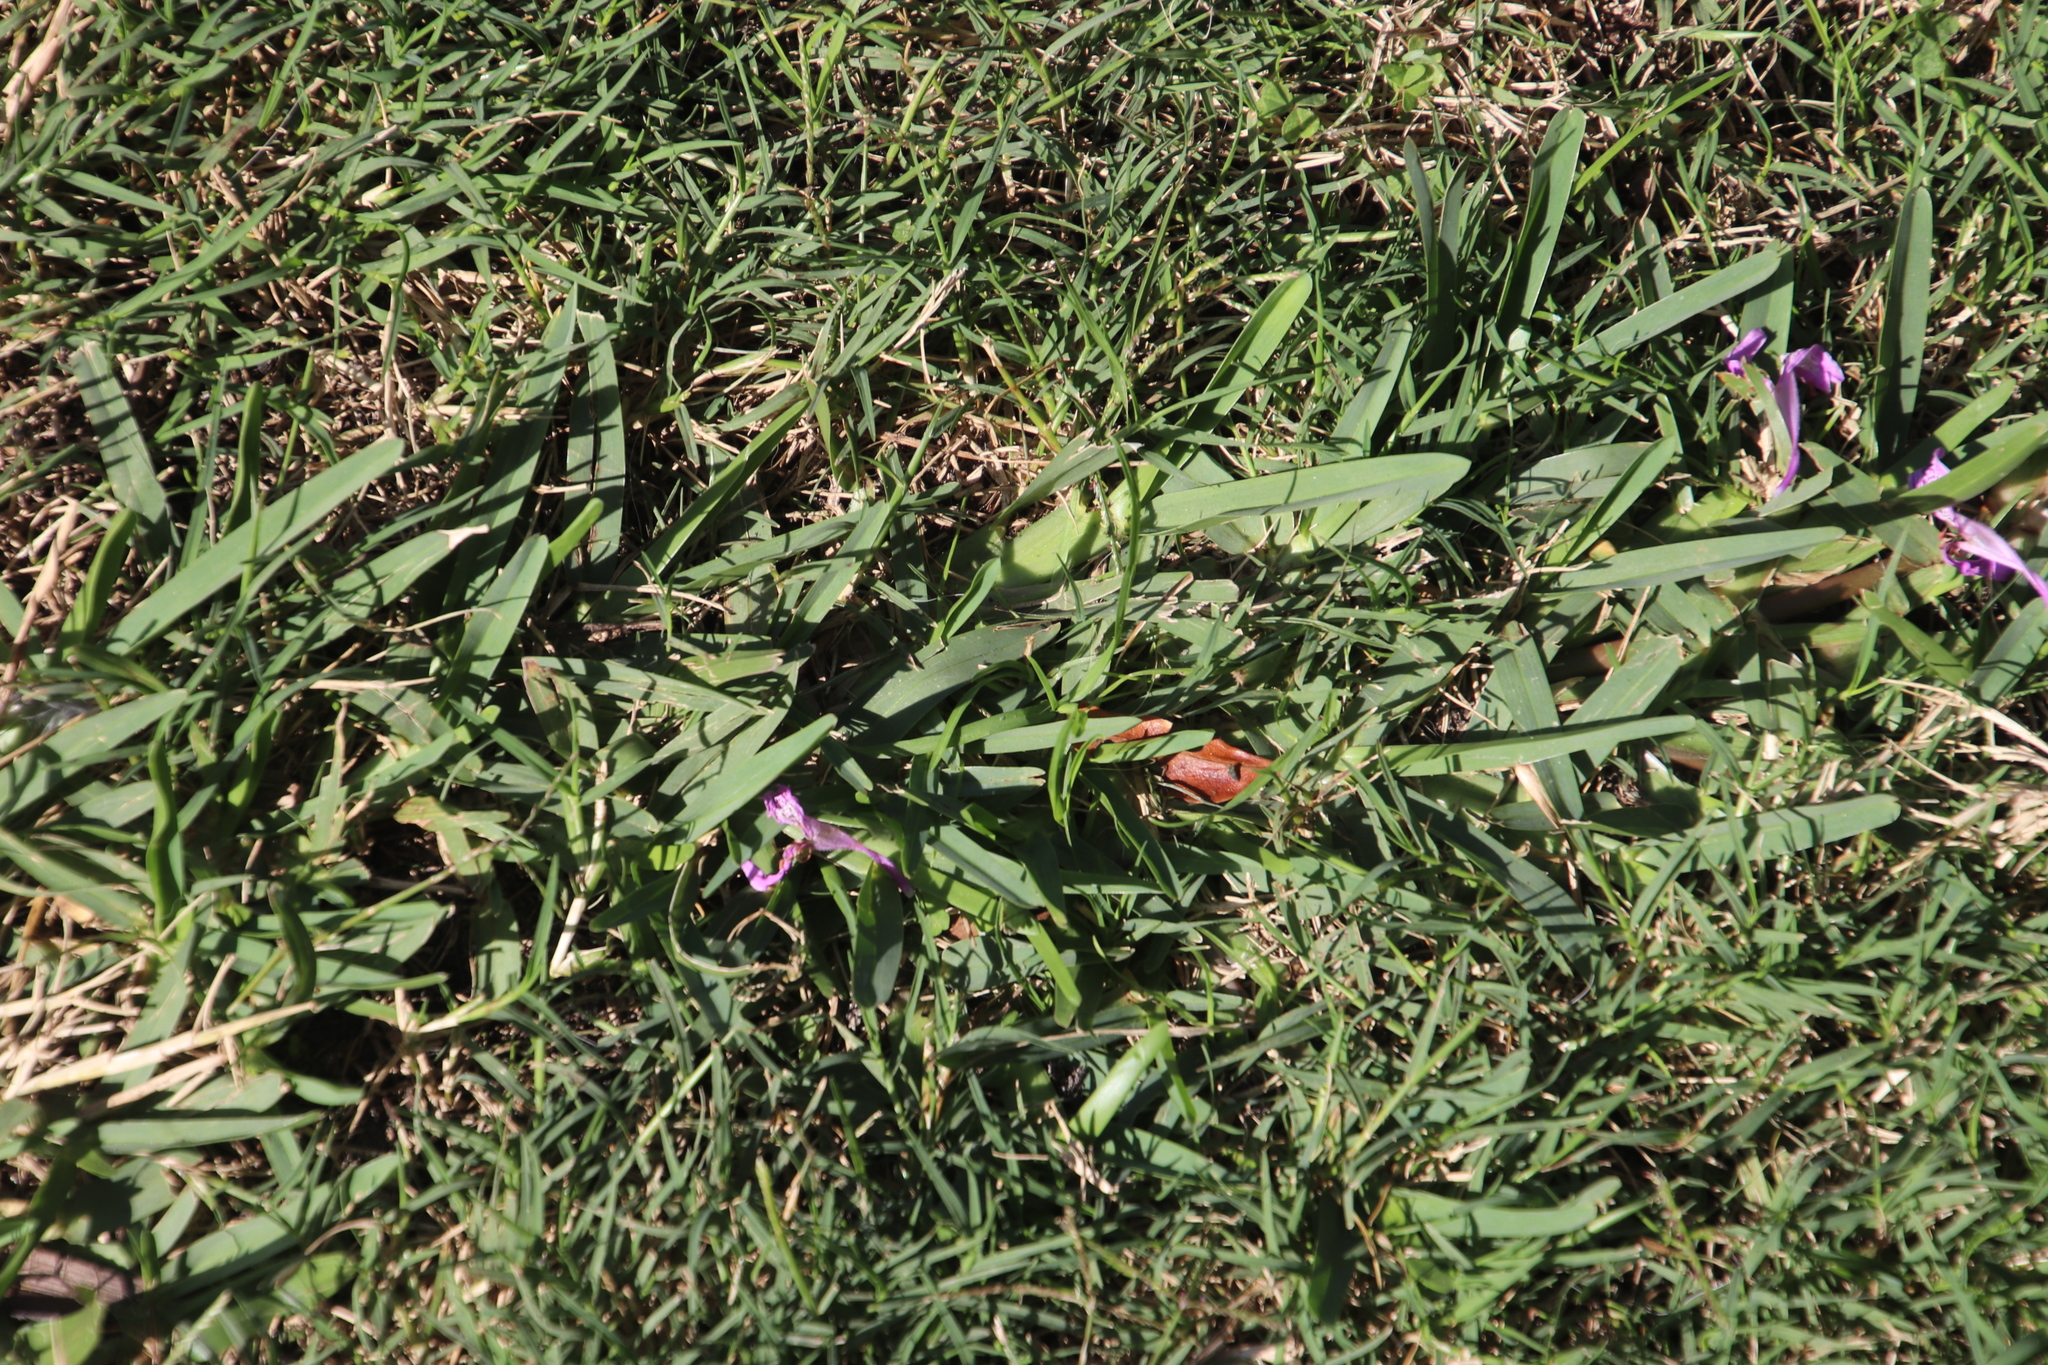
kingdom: Plantae
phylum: Tracheophyta
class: Liliopsida
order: Poales
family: Poaceae
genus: Stenotaphrum
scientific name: Stenotaphrum secundatum
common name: St. augustine grass
